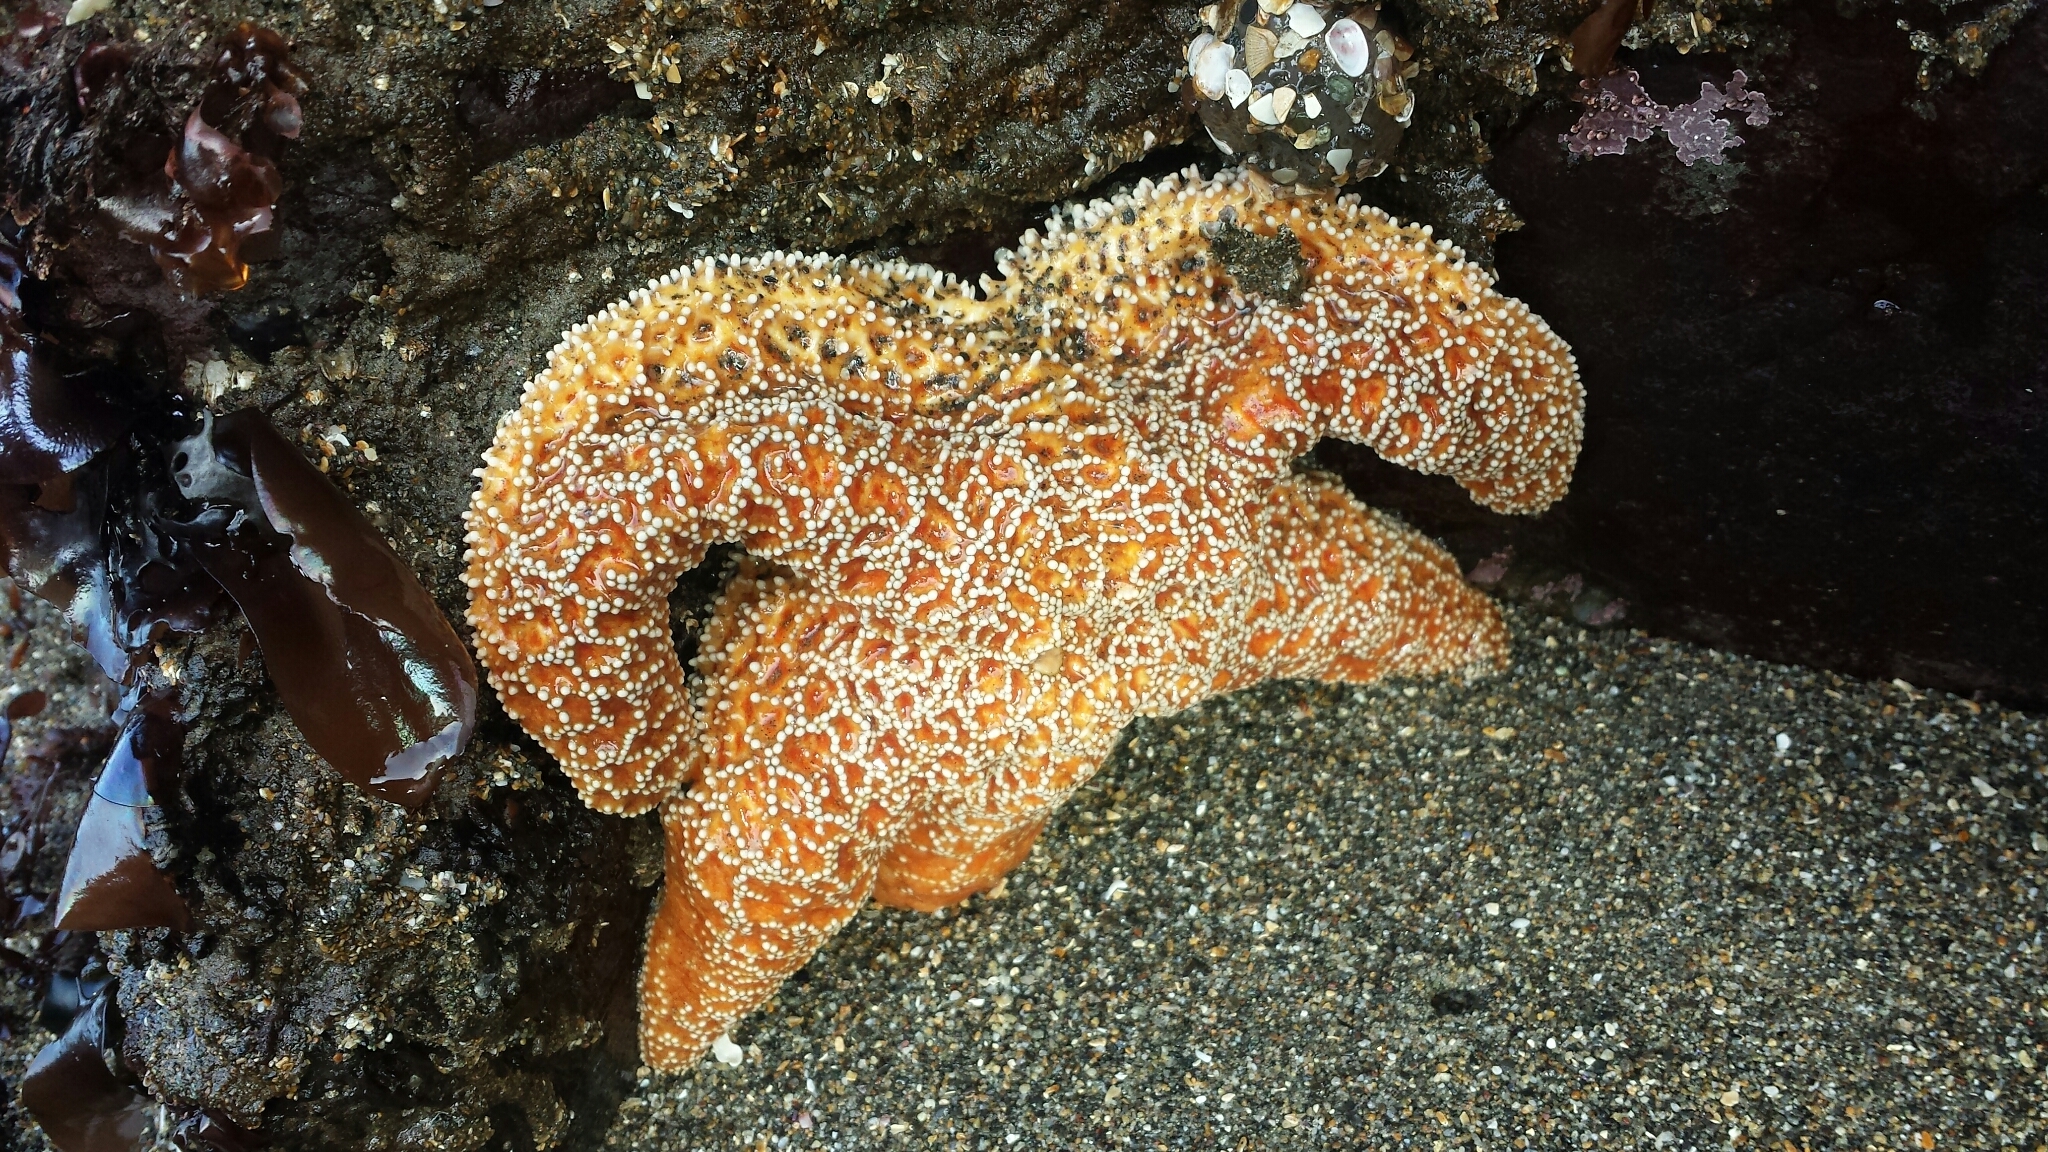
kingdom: Animalia
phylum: Echinodermata
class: Asteroidea
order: Forcipulatida
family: Asteriidae
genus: Pisaster
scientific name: Pisaster ochraceus
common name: Ochre stars
